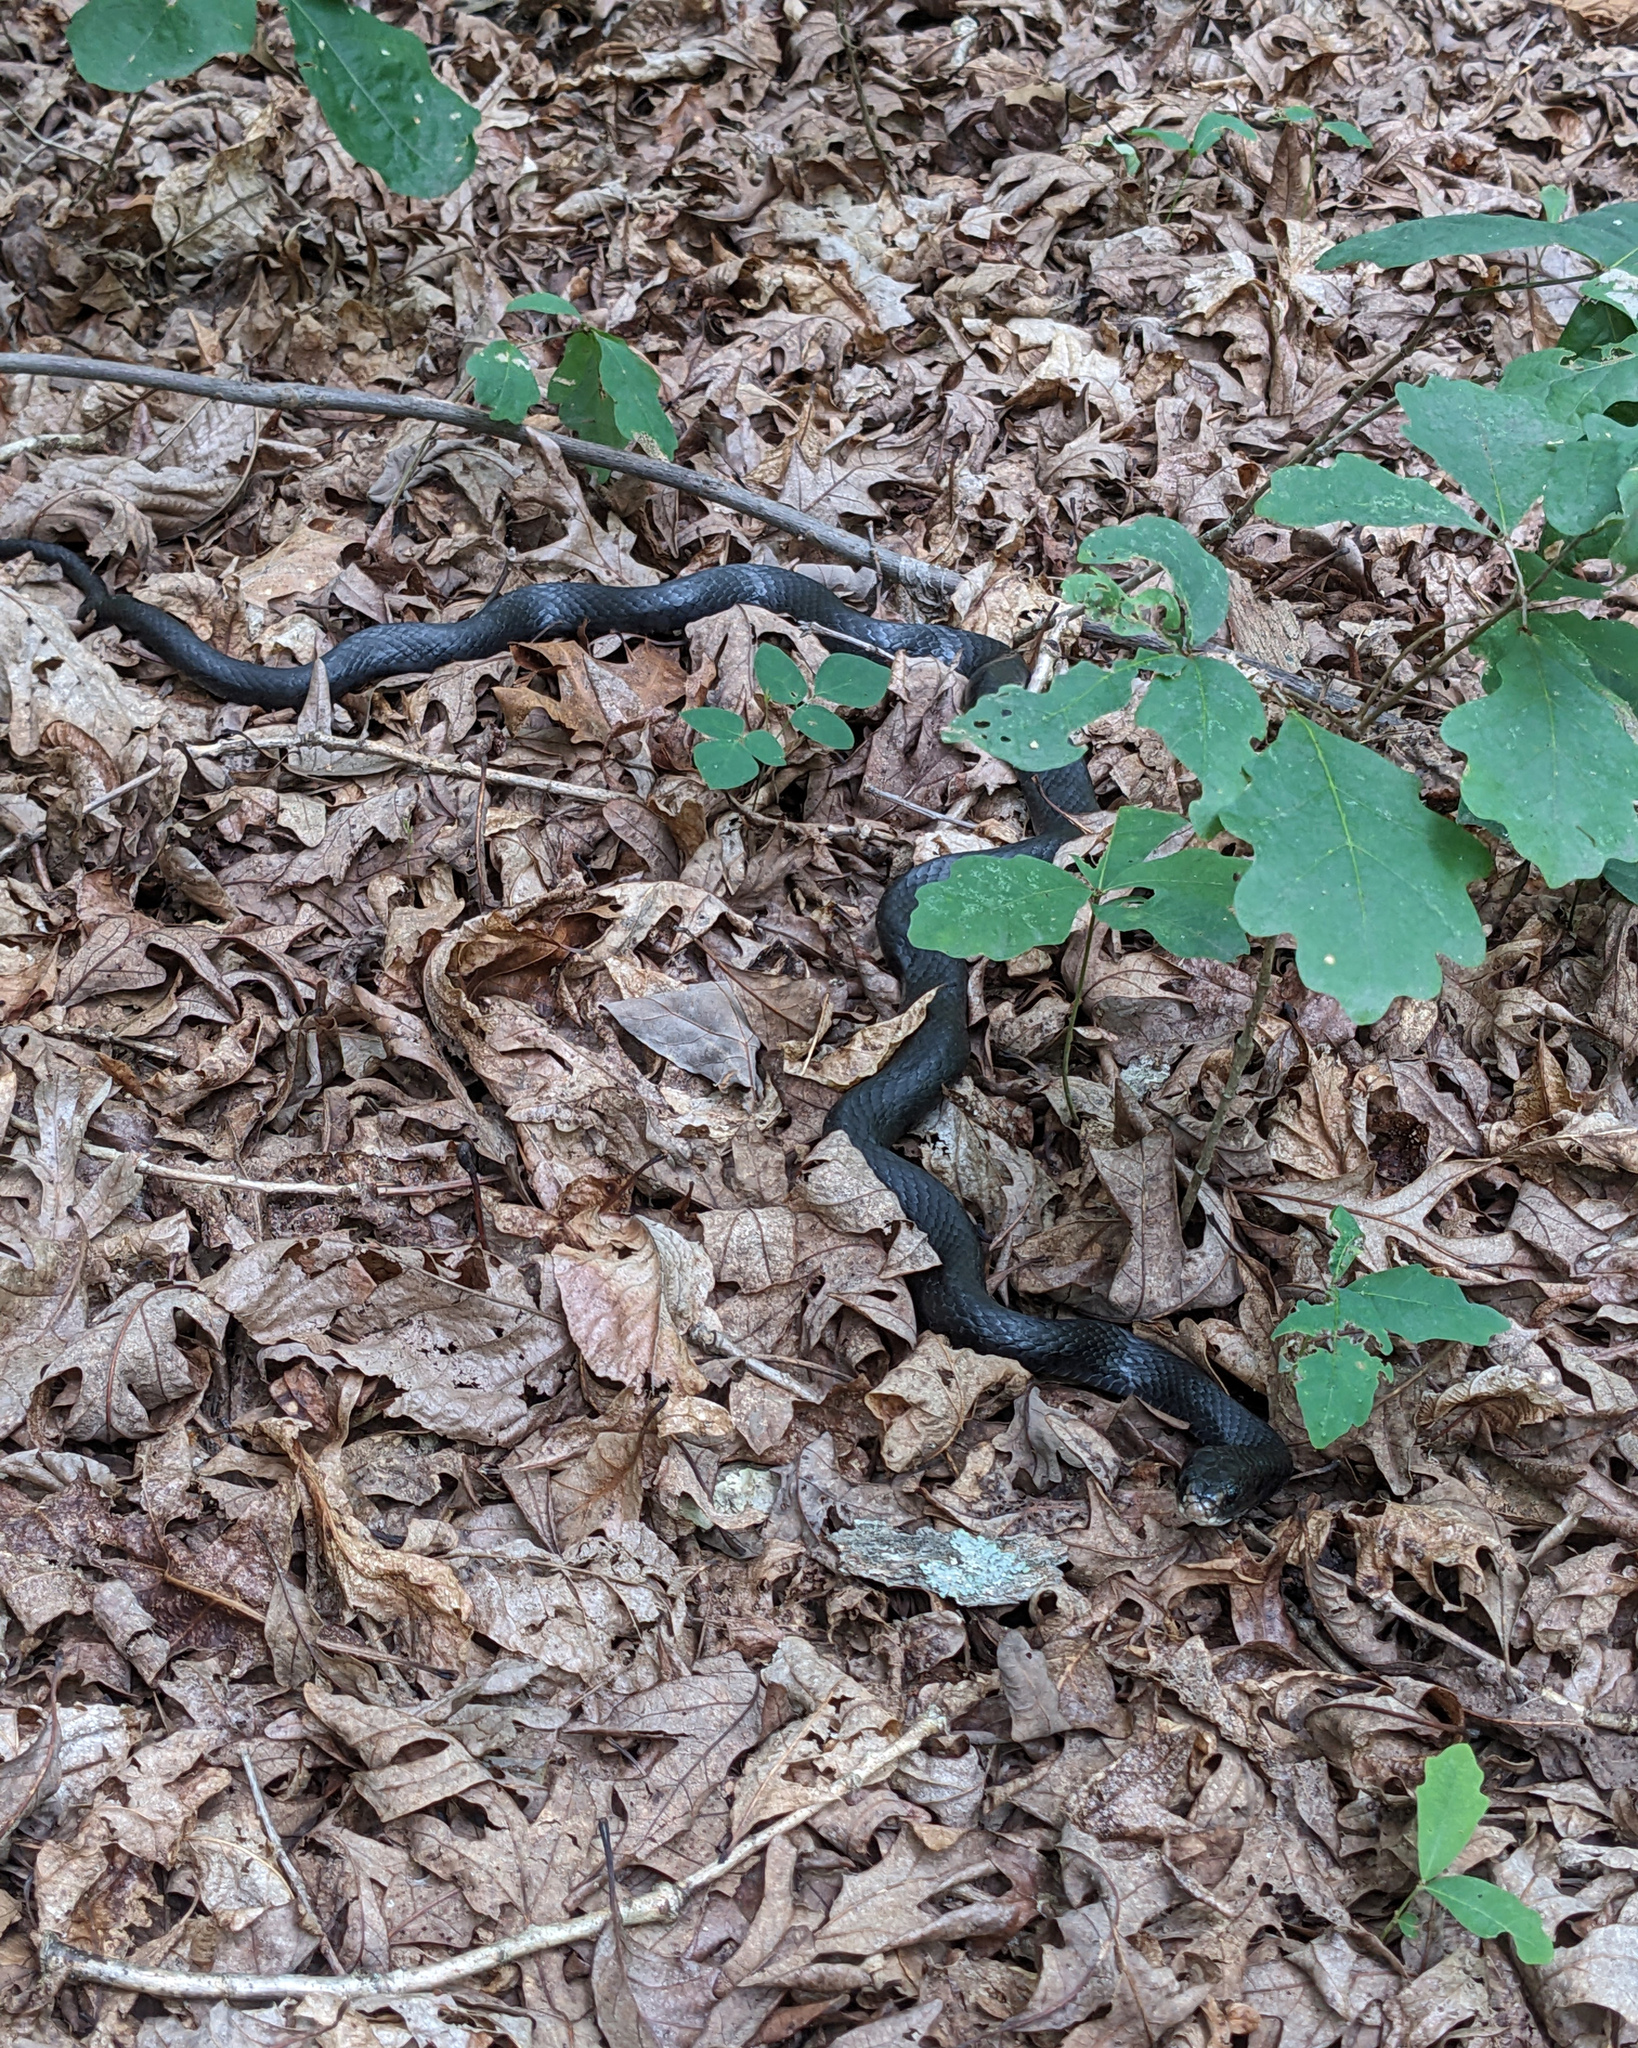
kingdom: Animalia
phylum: Chordata
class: Squamata
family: Colubridae
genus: Coluber
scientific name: Coluber constrictor
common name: Eastern racer
